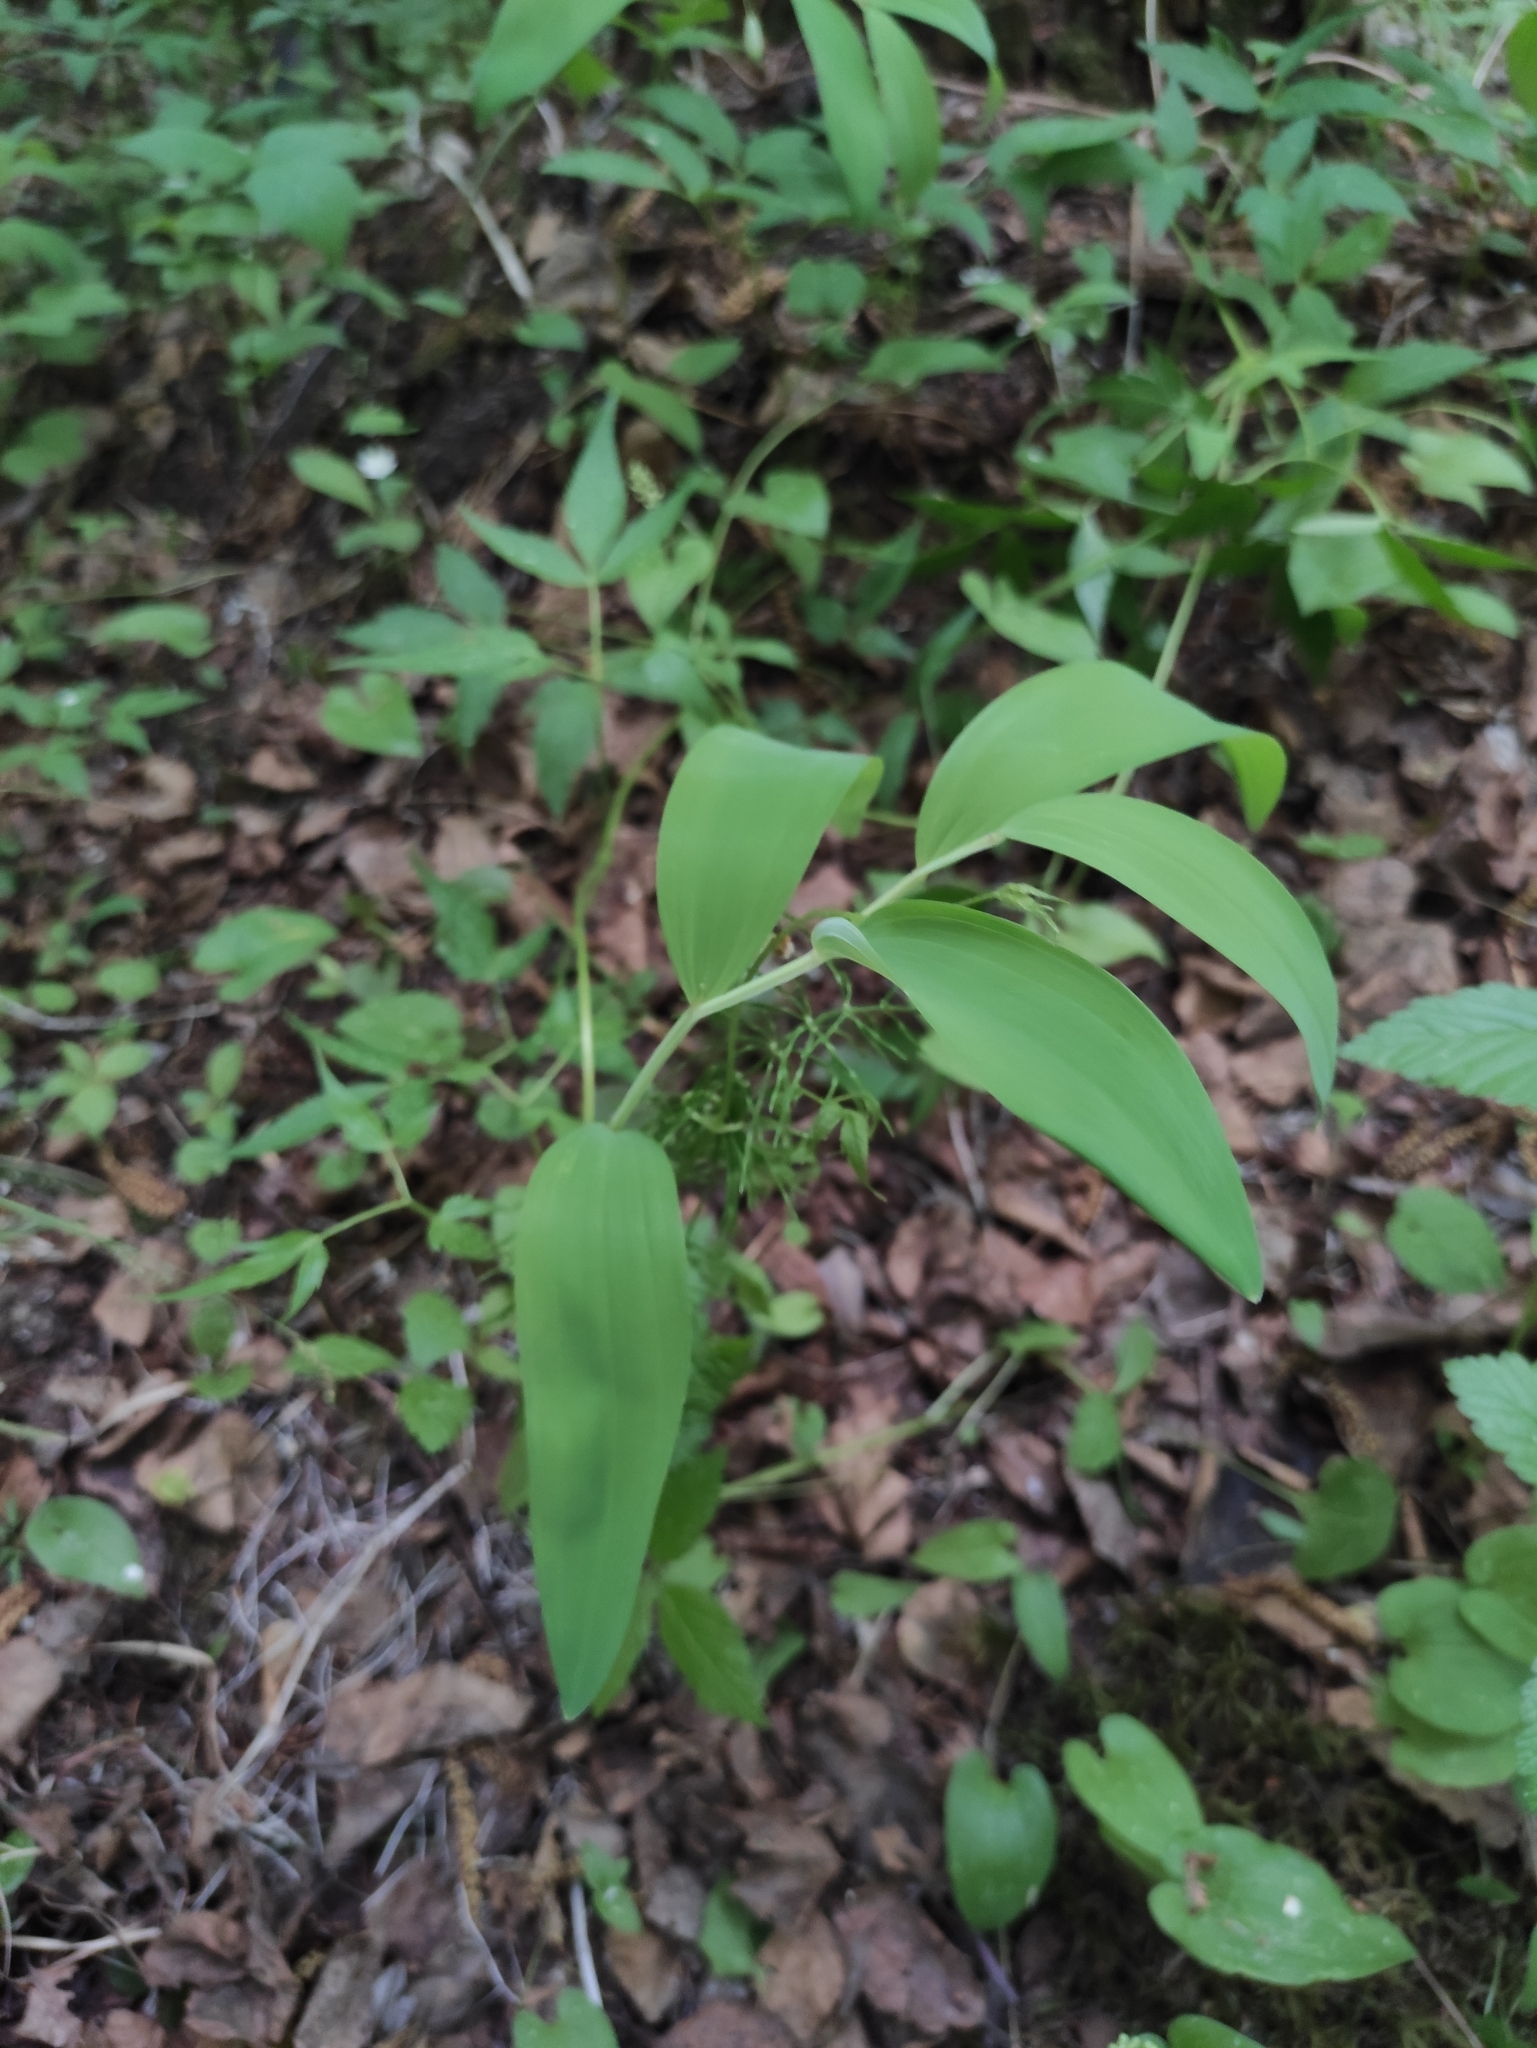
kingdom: Plantae
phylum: Tracheophyta
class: Liliopsida
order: Asparagales
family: Asparagaceae
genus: Polygonatum
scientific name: Polygonatum odoratum
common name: Angular solomon's-seal
